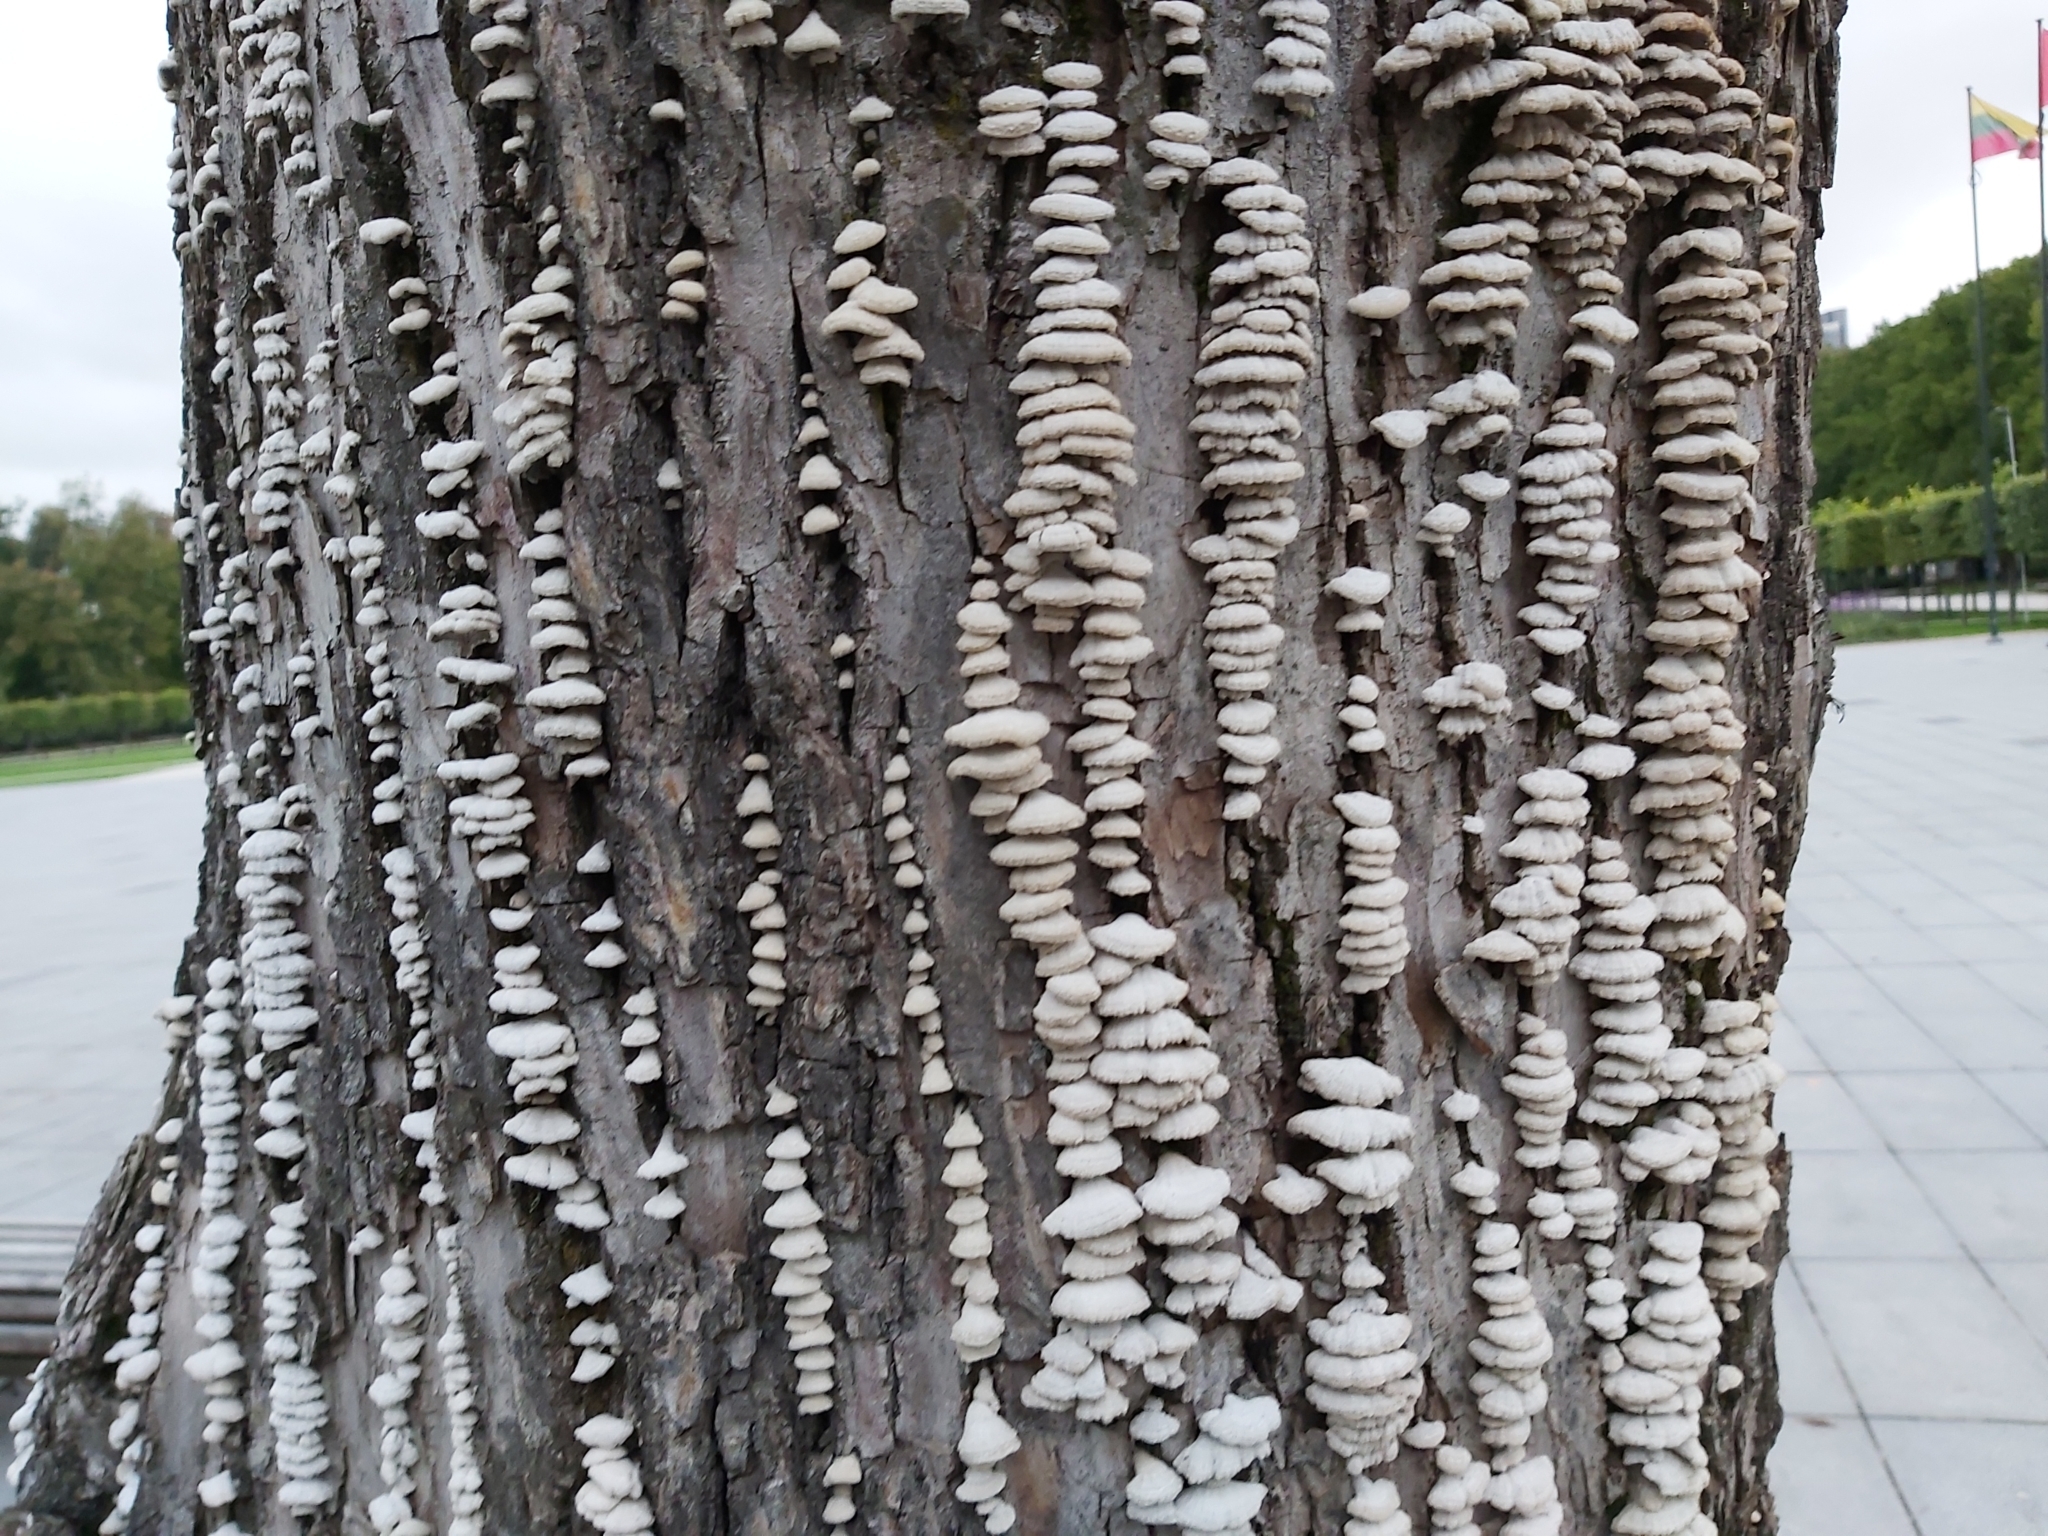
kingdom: Fungi
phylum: Basidiomycota
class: Agaricomycetes
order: Agaricales
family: Schizophyllaceae
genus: Schizophyllum
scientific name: Schizophyllum commune
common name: Common porecrust
